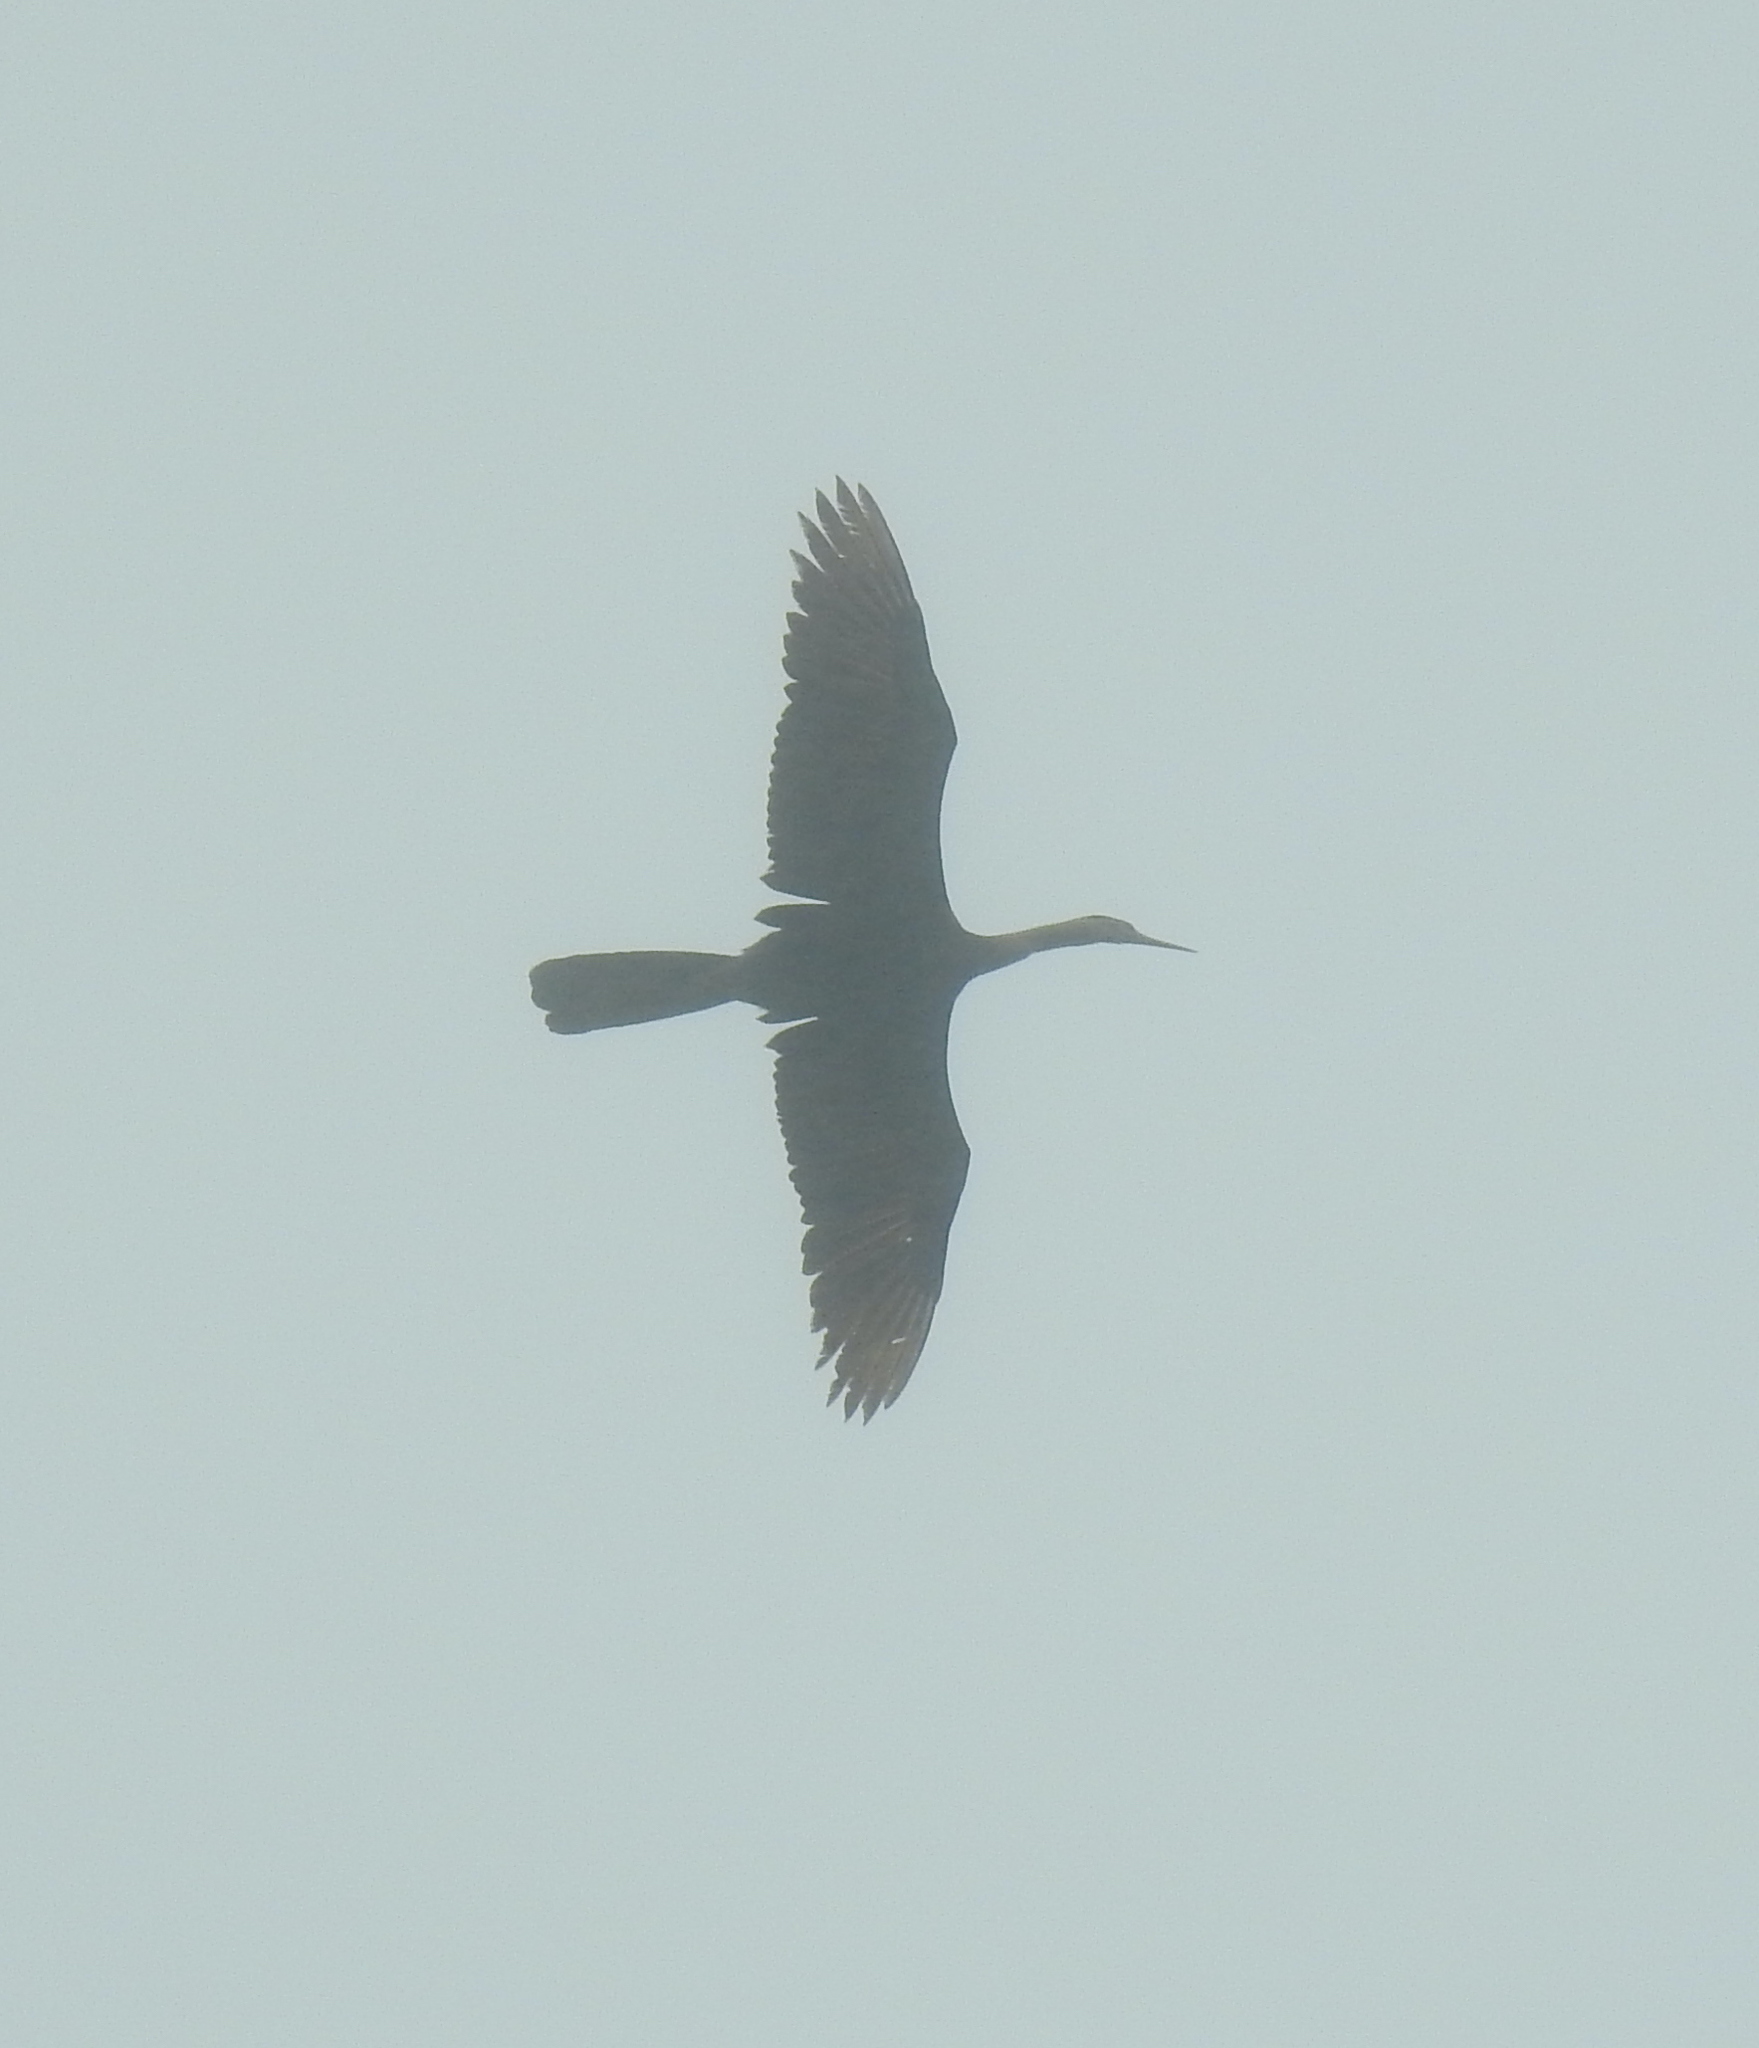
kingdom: Animalia
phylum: Chordata
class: Aves
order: Suliformes
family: Anhingidae
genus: Anhinga
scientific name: Anhinga rufa
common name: African darter
